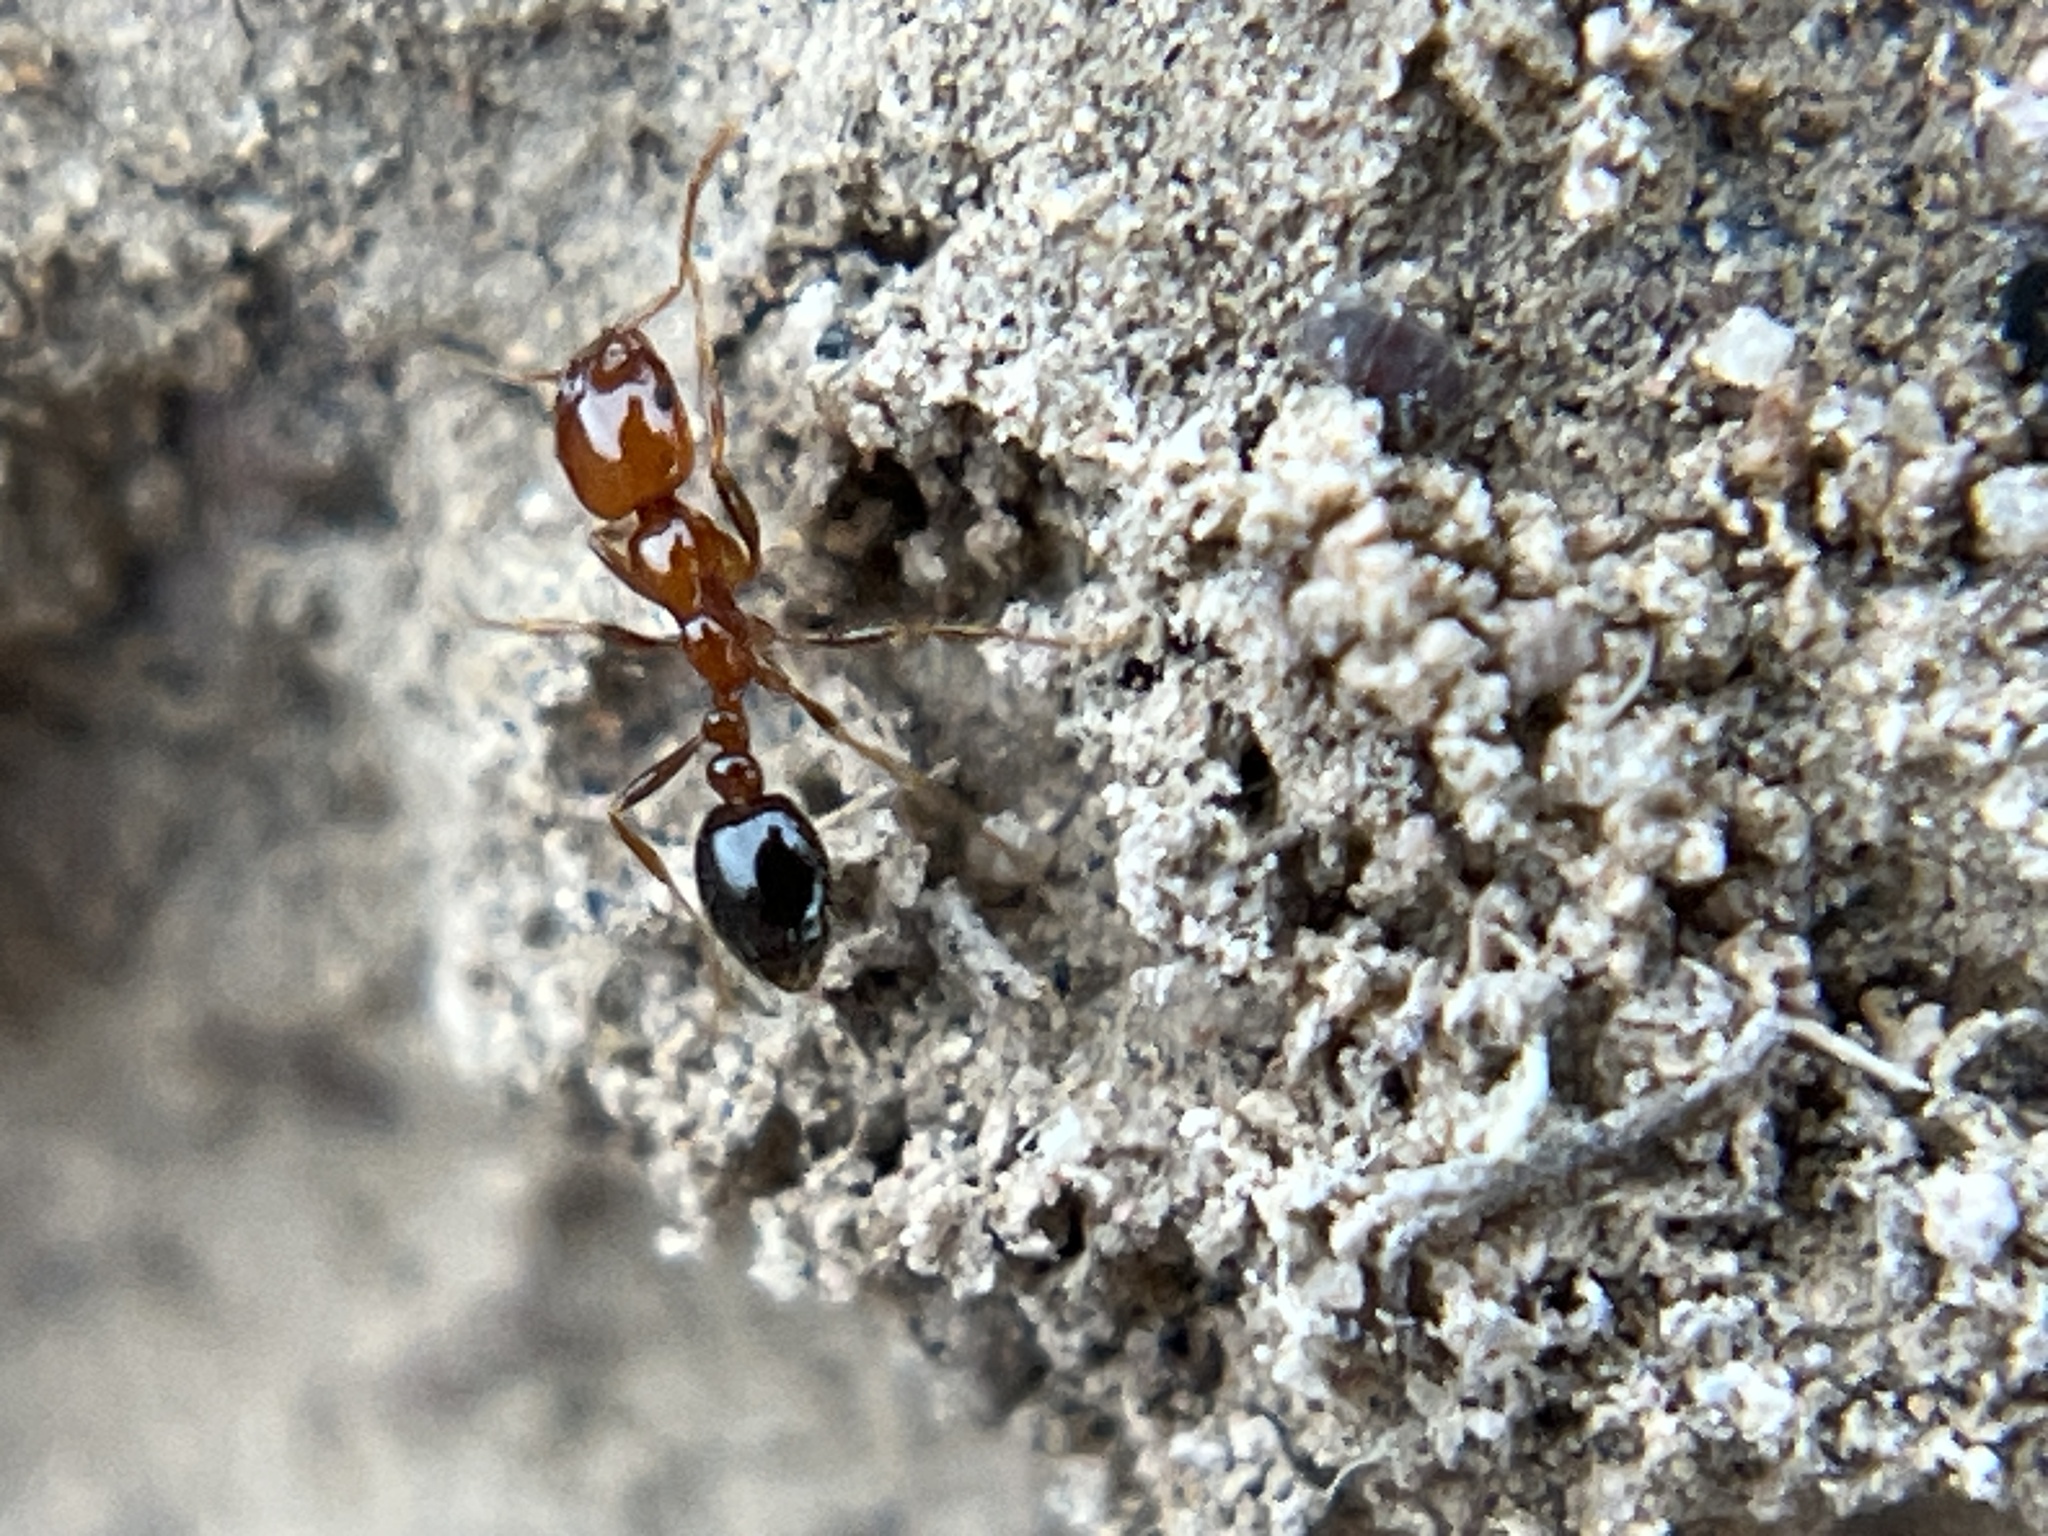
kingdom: Animalia
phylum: Arthropoda
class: Insecta
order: Hymenoptera
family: Formicidae
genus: Solenopsis
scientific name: Solenopsis xyloni
